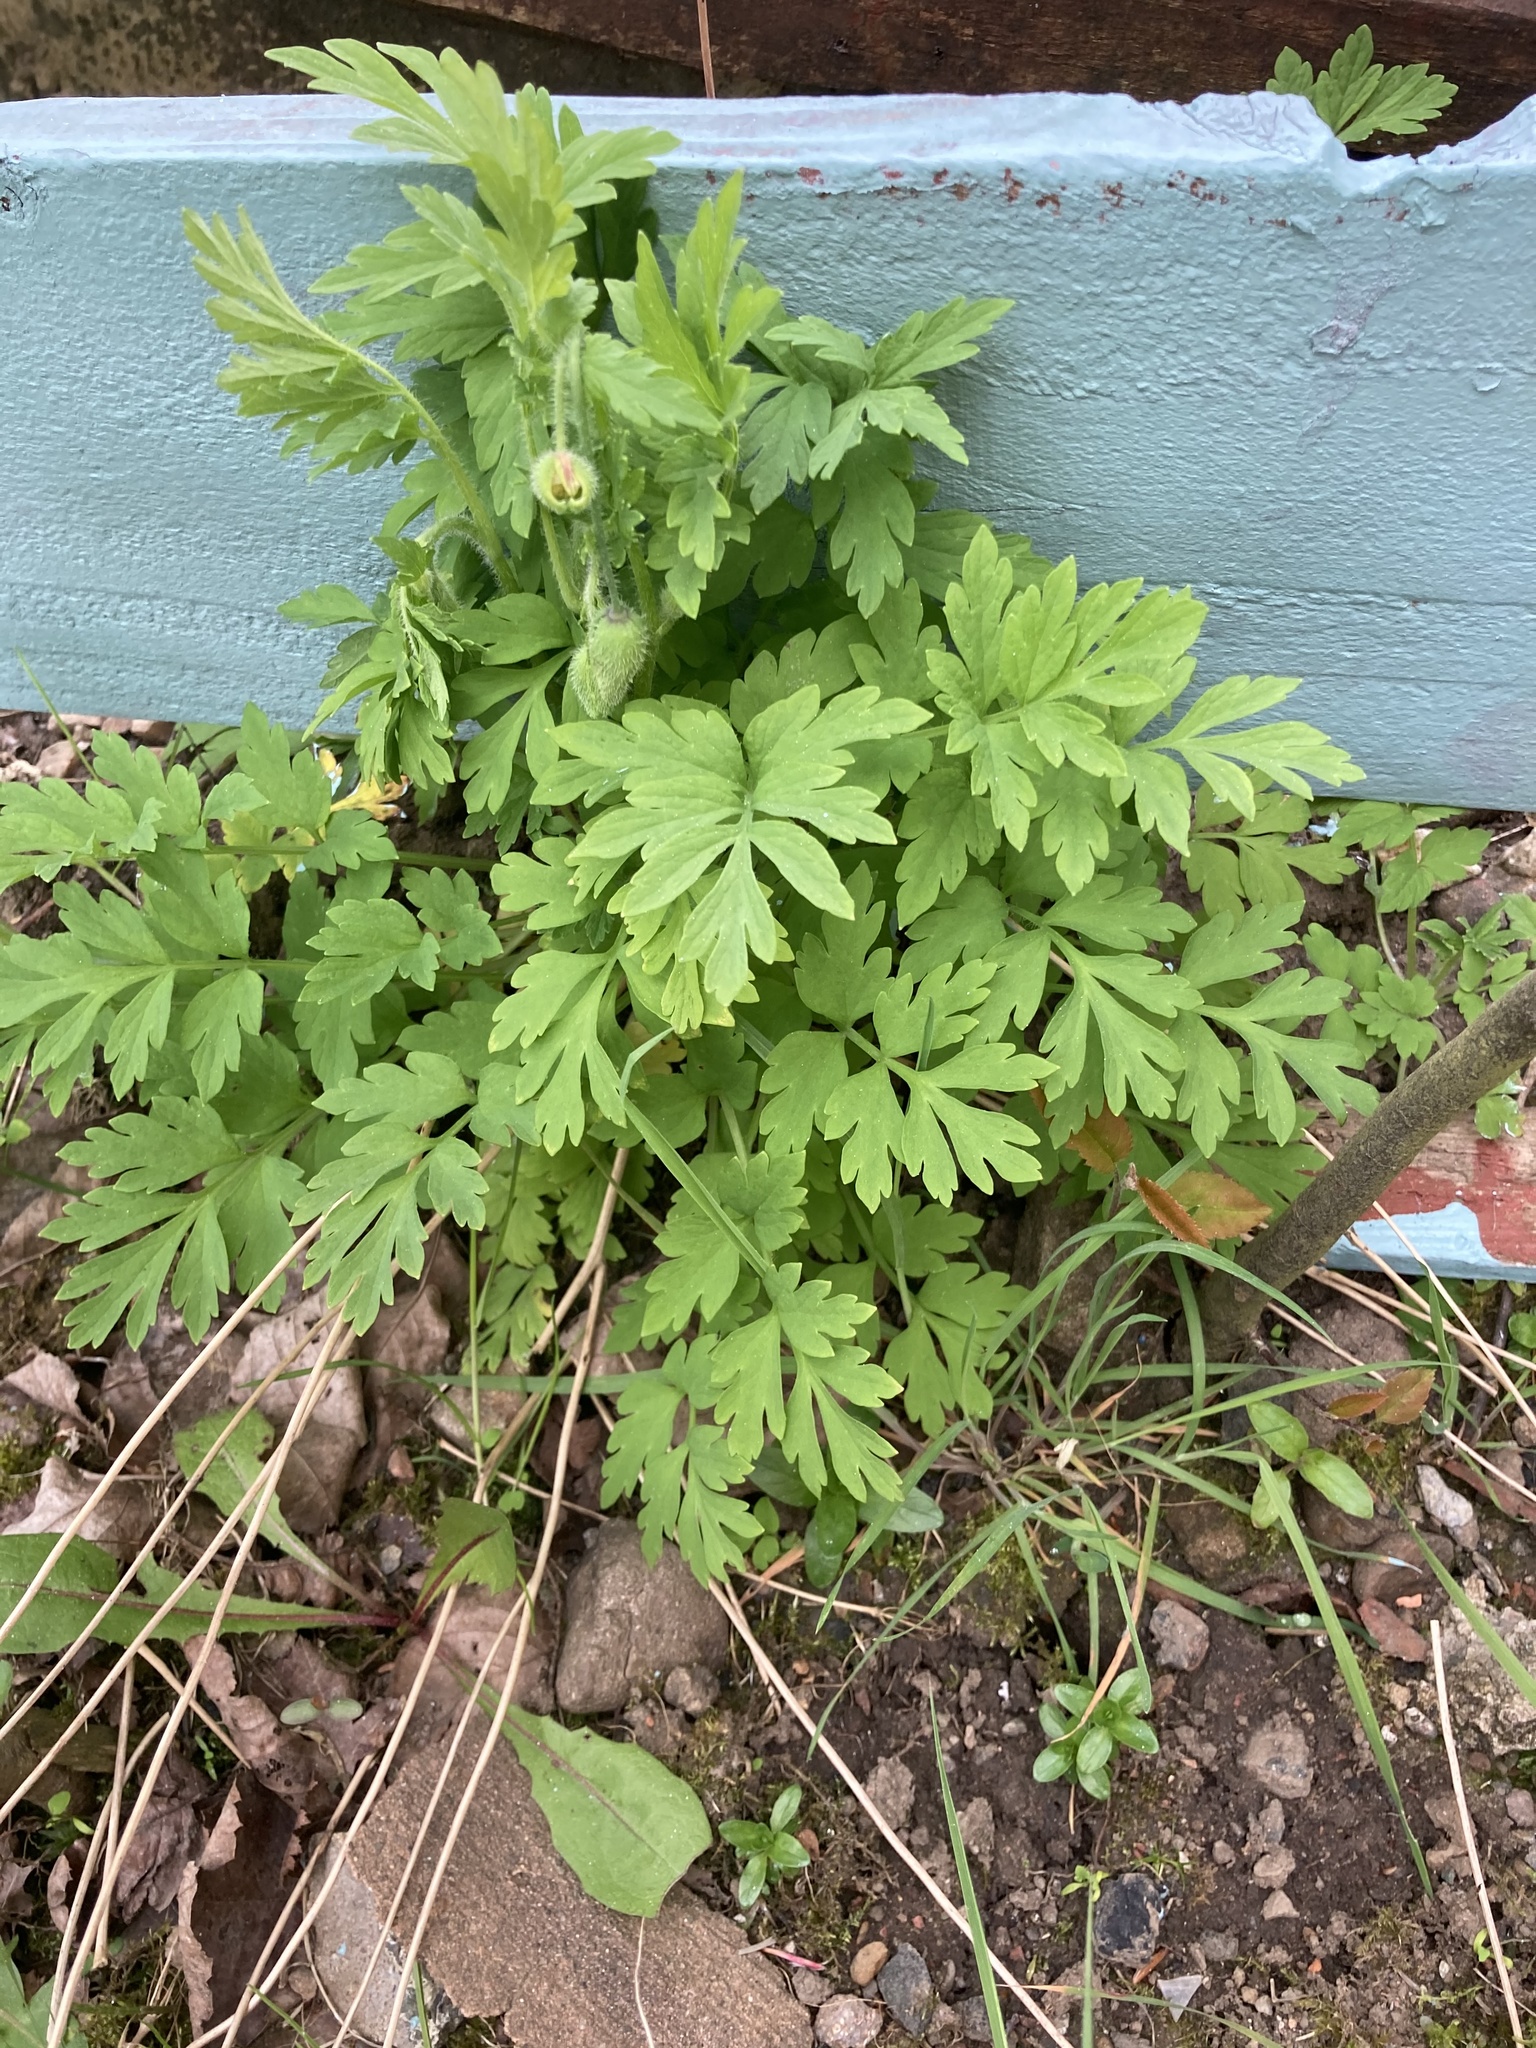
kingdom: Plantae
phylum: Tracheophyta
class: Magnoliopsida
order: Ranunculales
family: Papaveraceae
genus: Papaver
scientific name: Papaver cambricum
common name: Poppy
